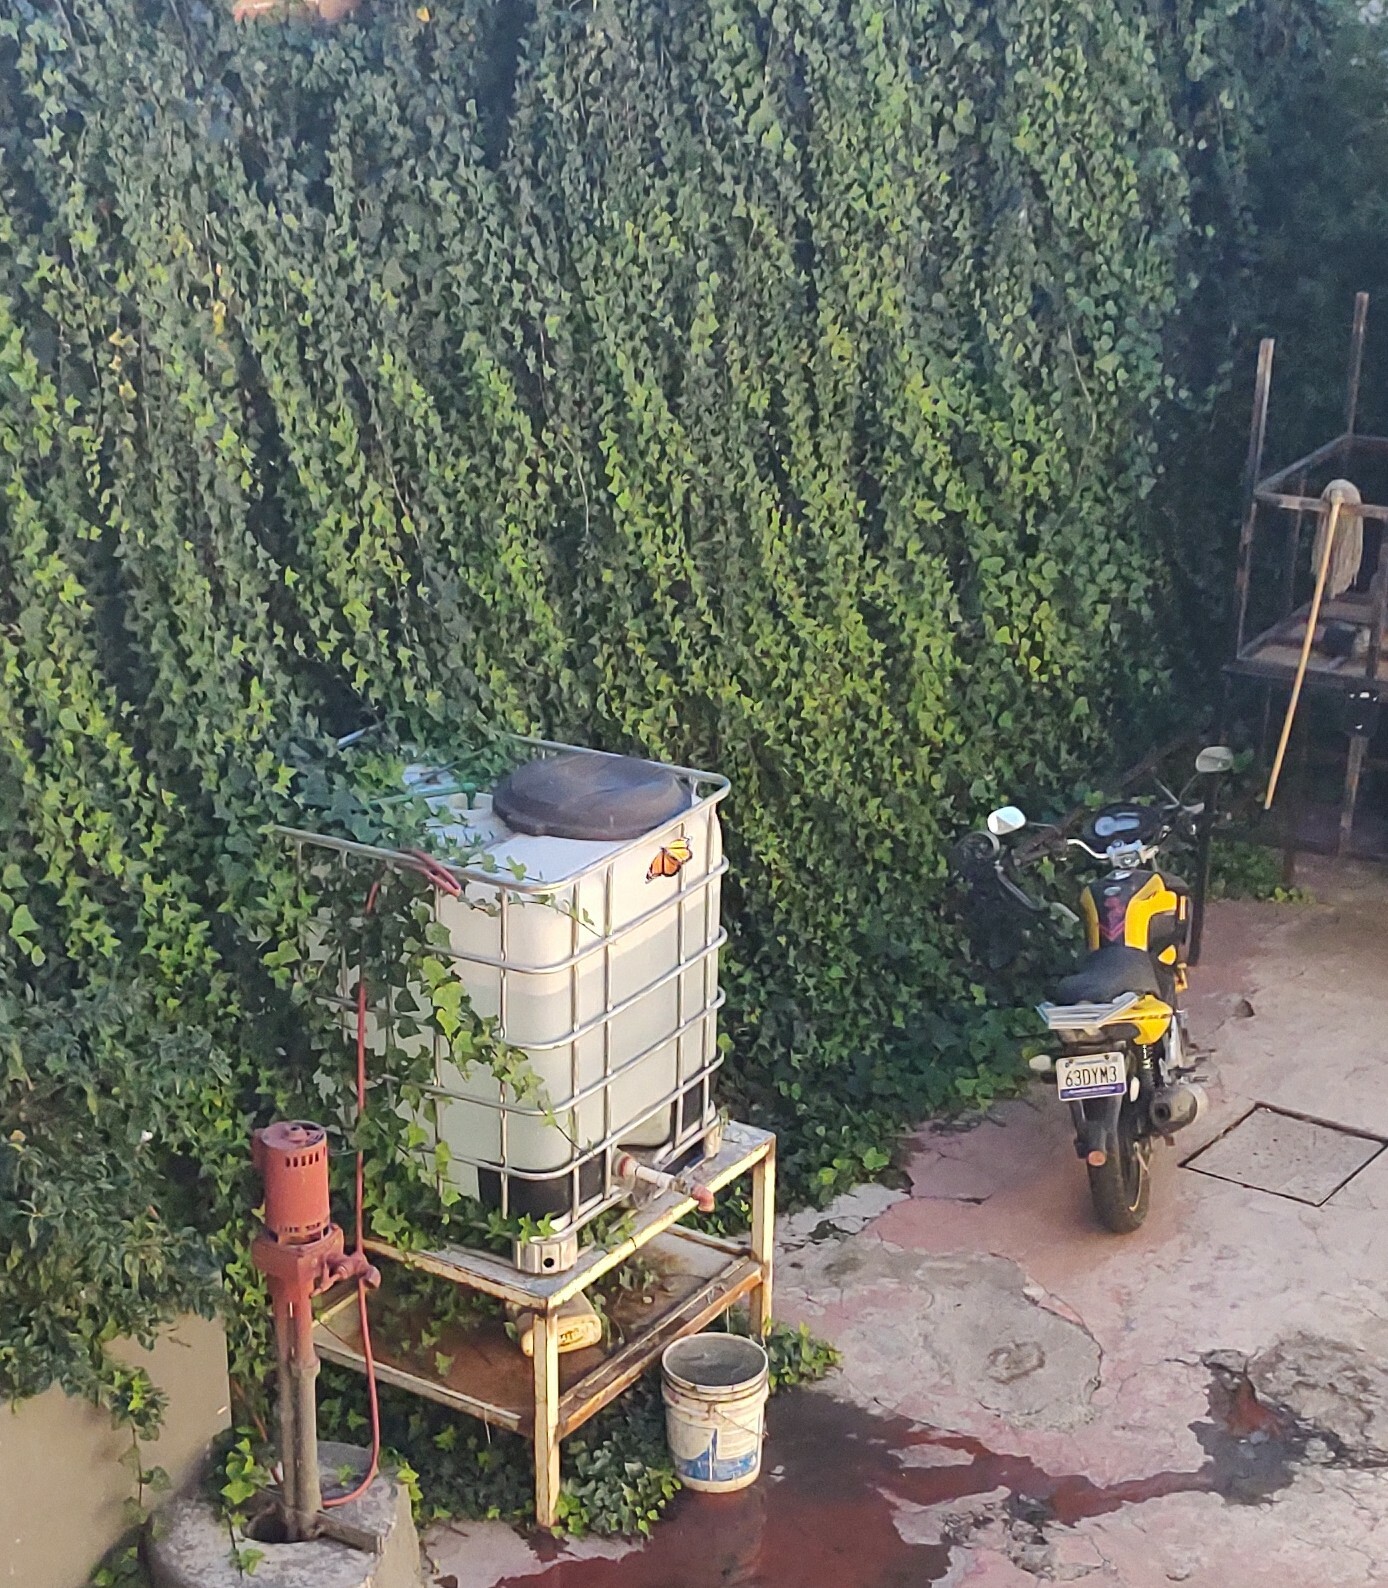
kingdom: Animalia
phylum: Arthropoda
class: Insecta
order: Lepidoptera
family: Nymphalidae
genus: Danaus
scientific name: Danaus plexippus
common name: Monarch
